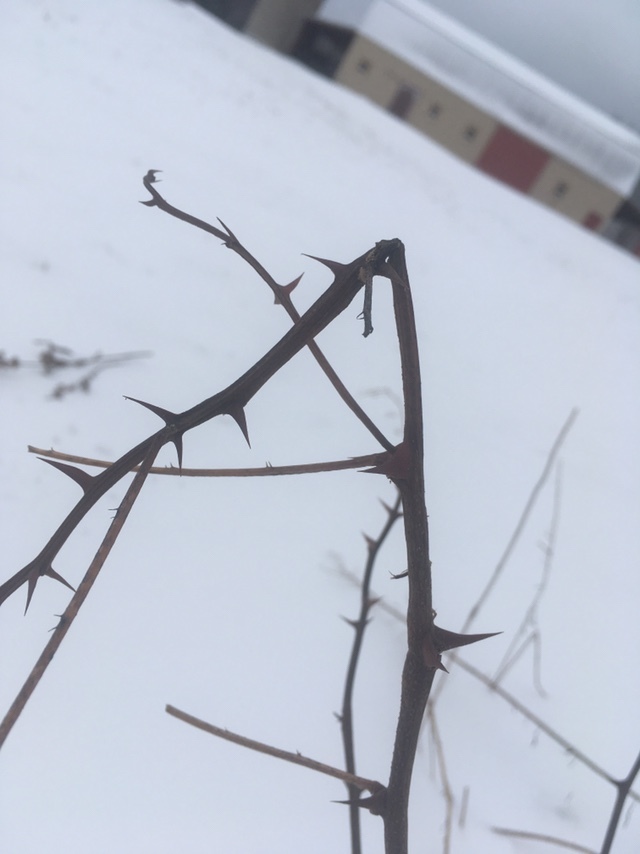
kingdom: Plantae
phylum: Tracheophyta
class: Magnoliopsida
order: Fabales
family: Fabaceae
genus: Robinia
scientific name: Robinia pseudoacacia
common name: Black locust
